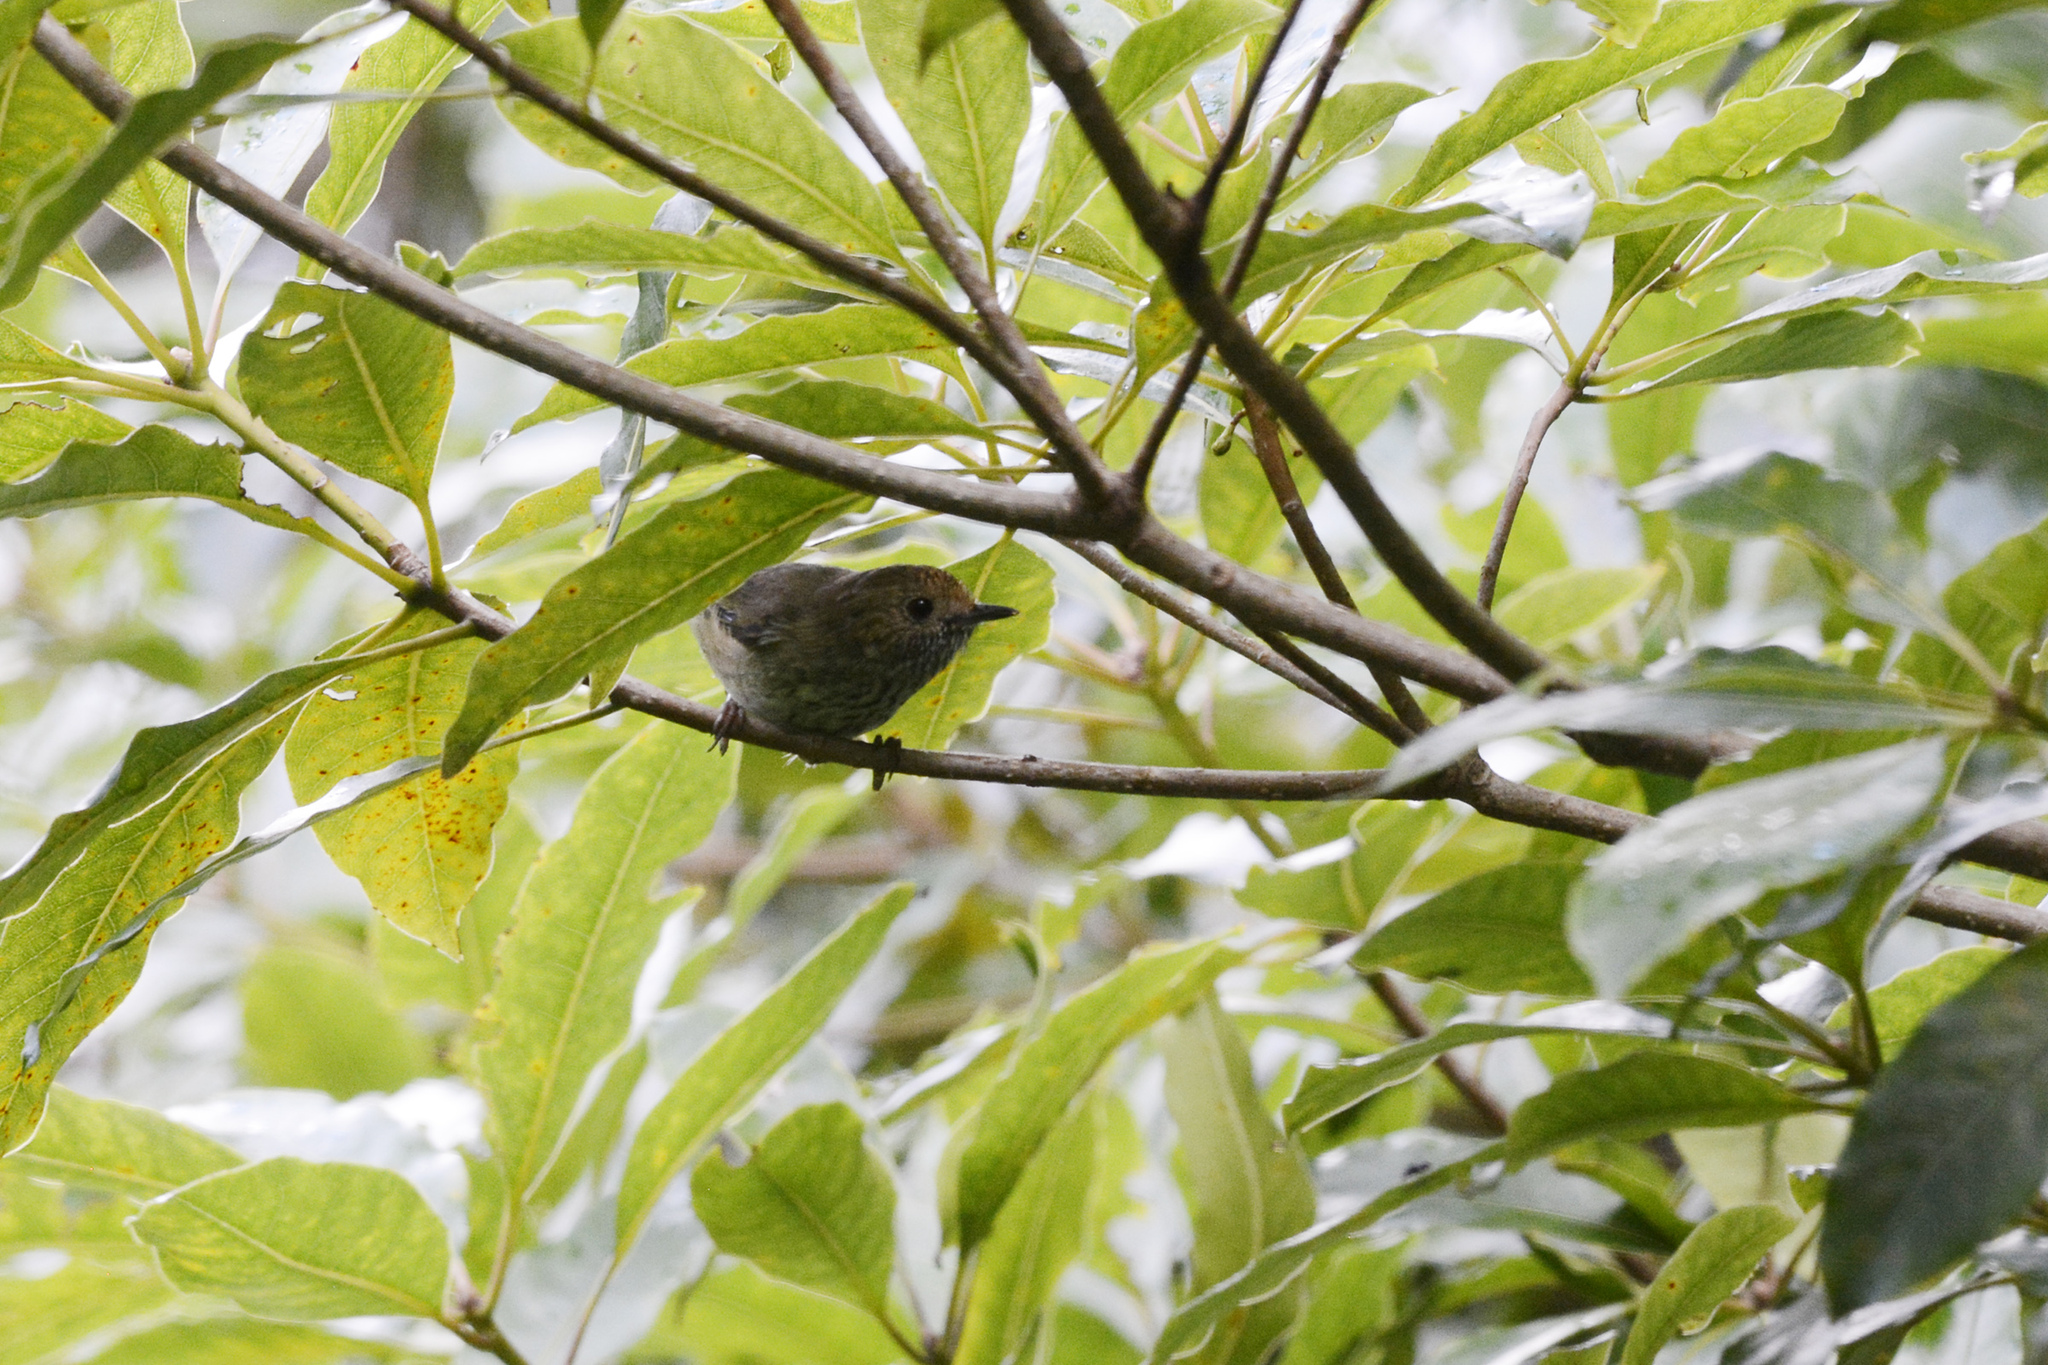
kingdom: Animalia
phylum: Chordata
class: Aves
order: Passeriformes
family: Acanthizidae
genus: Acanthiza
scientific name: Acanthiza pusilla
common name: Brown thornbill
